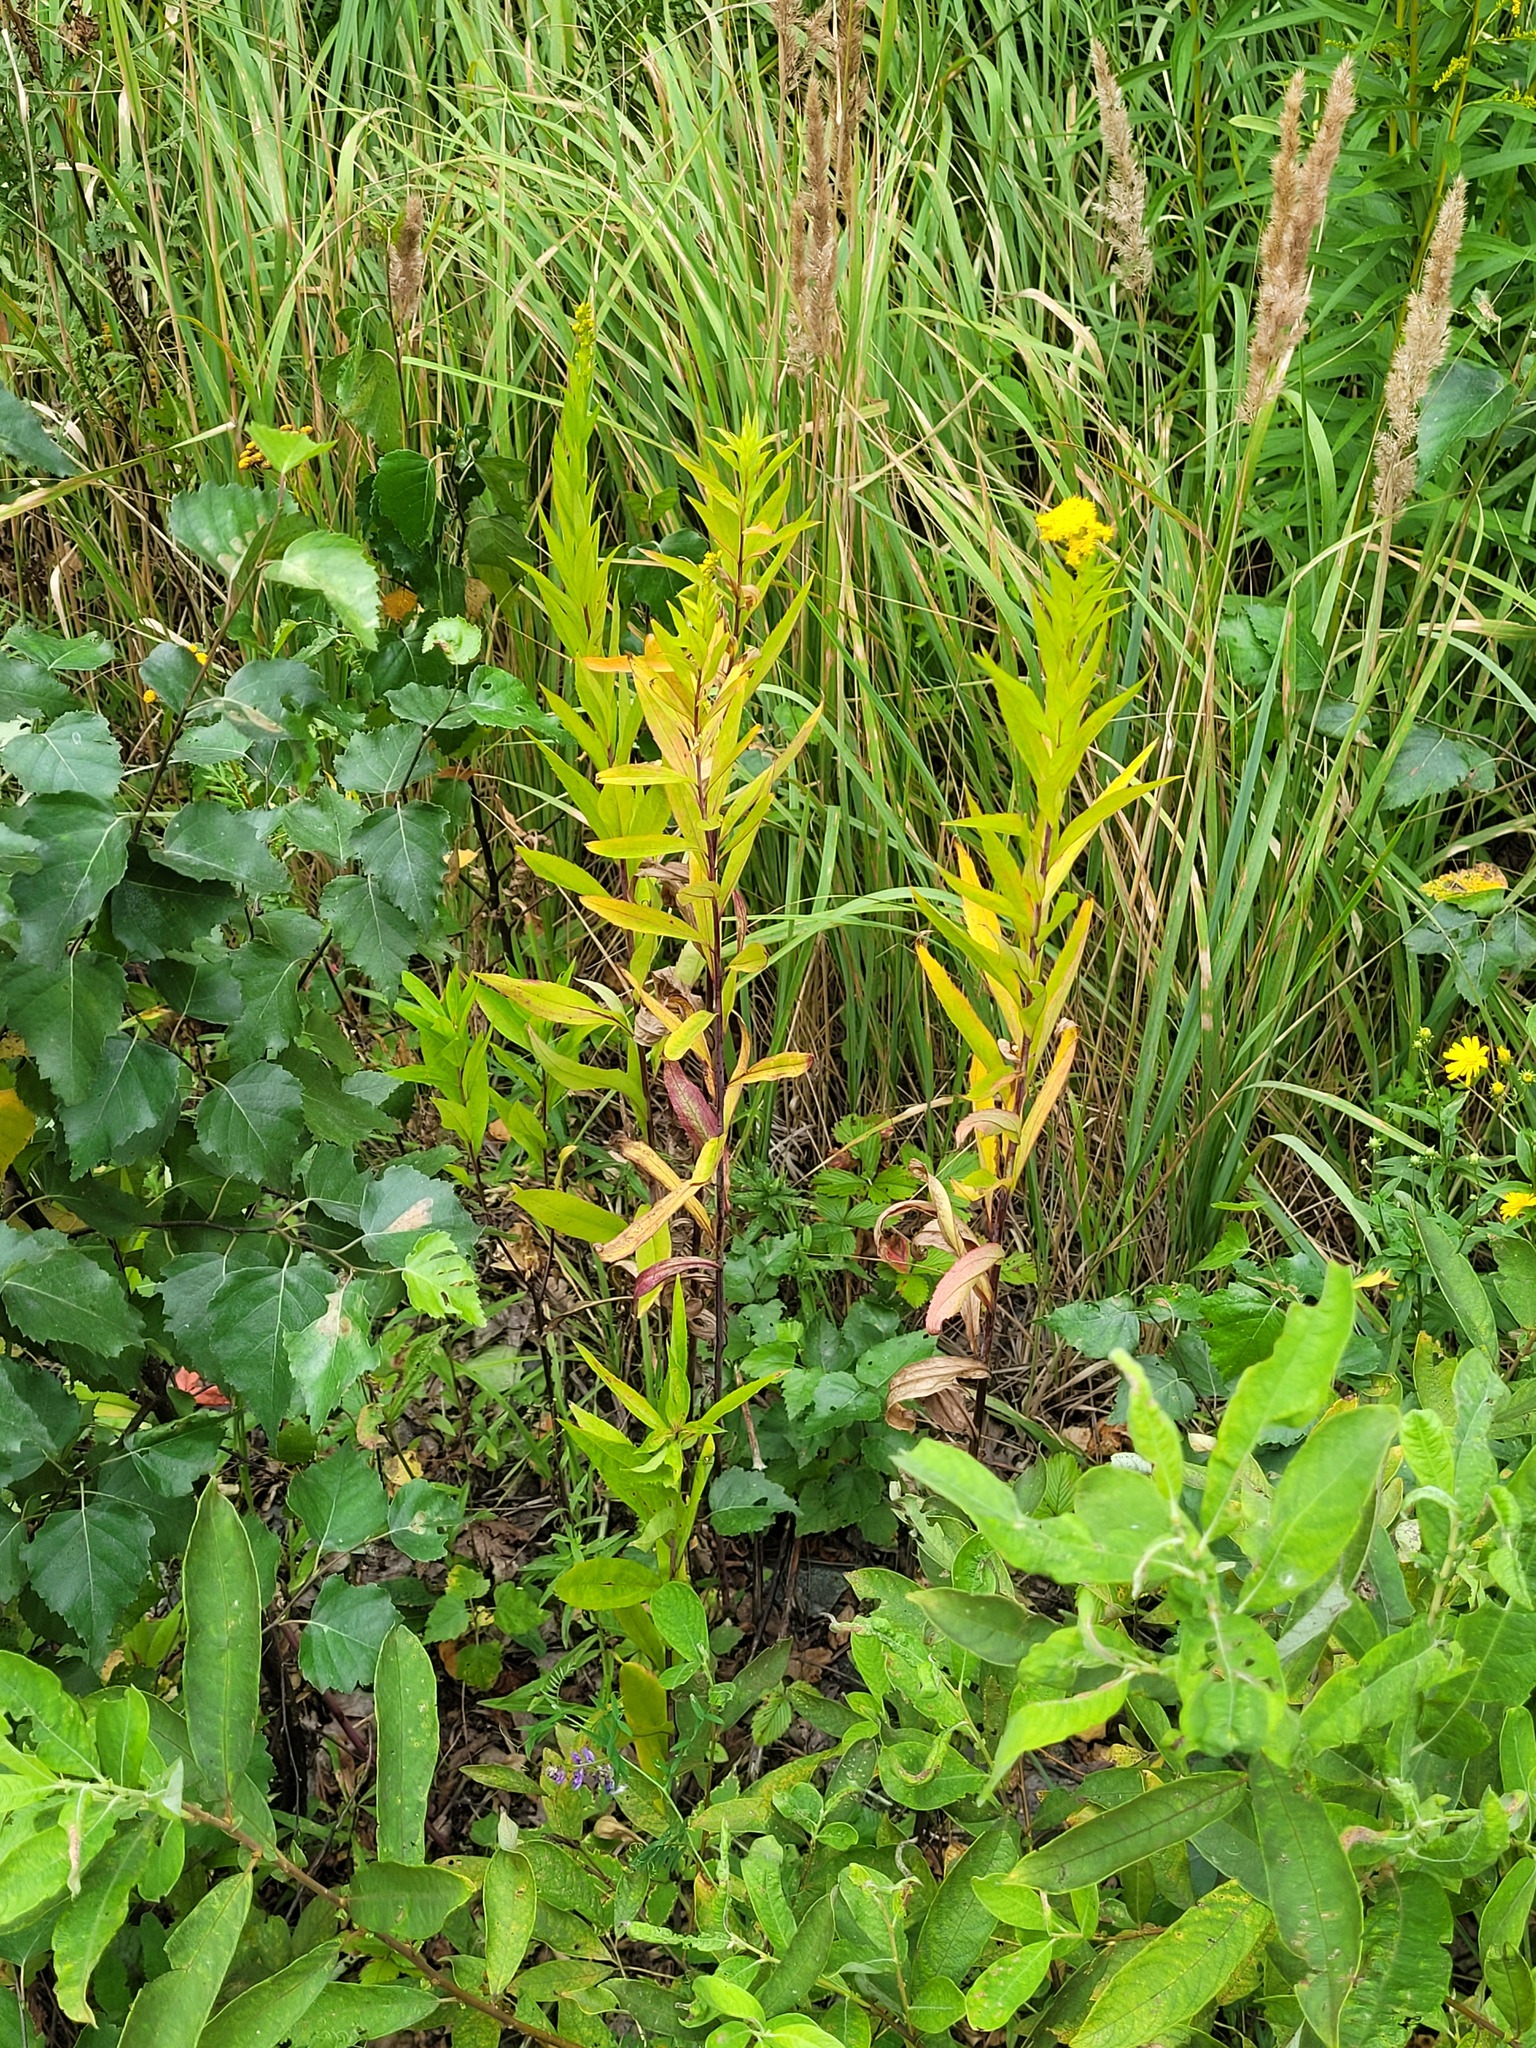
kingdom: Plantae
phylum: Tracheophyta
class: Magnoliopsida
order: Asterales
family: Asteraceae
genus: Solidago
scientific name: Solidago gigantea
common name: Giant goldenrod
